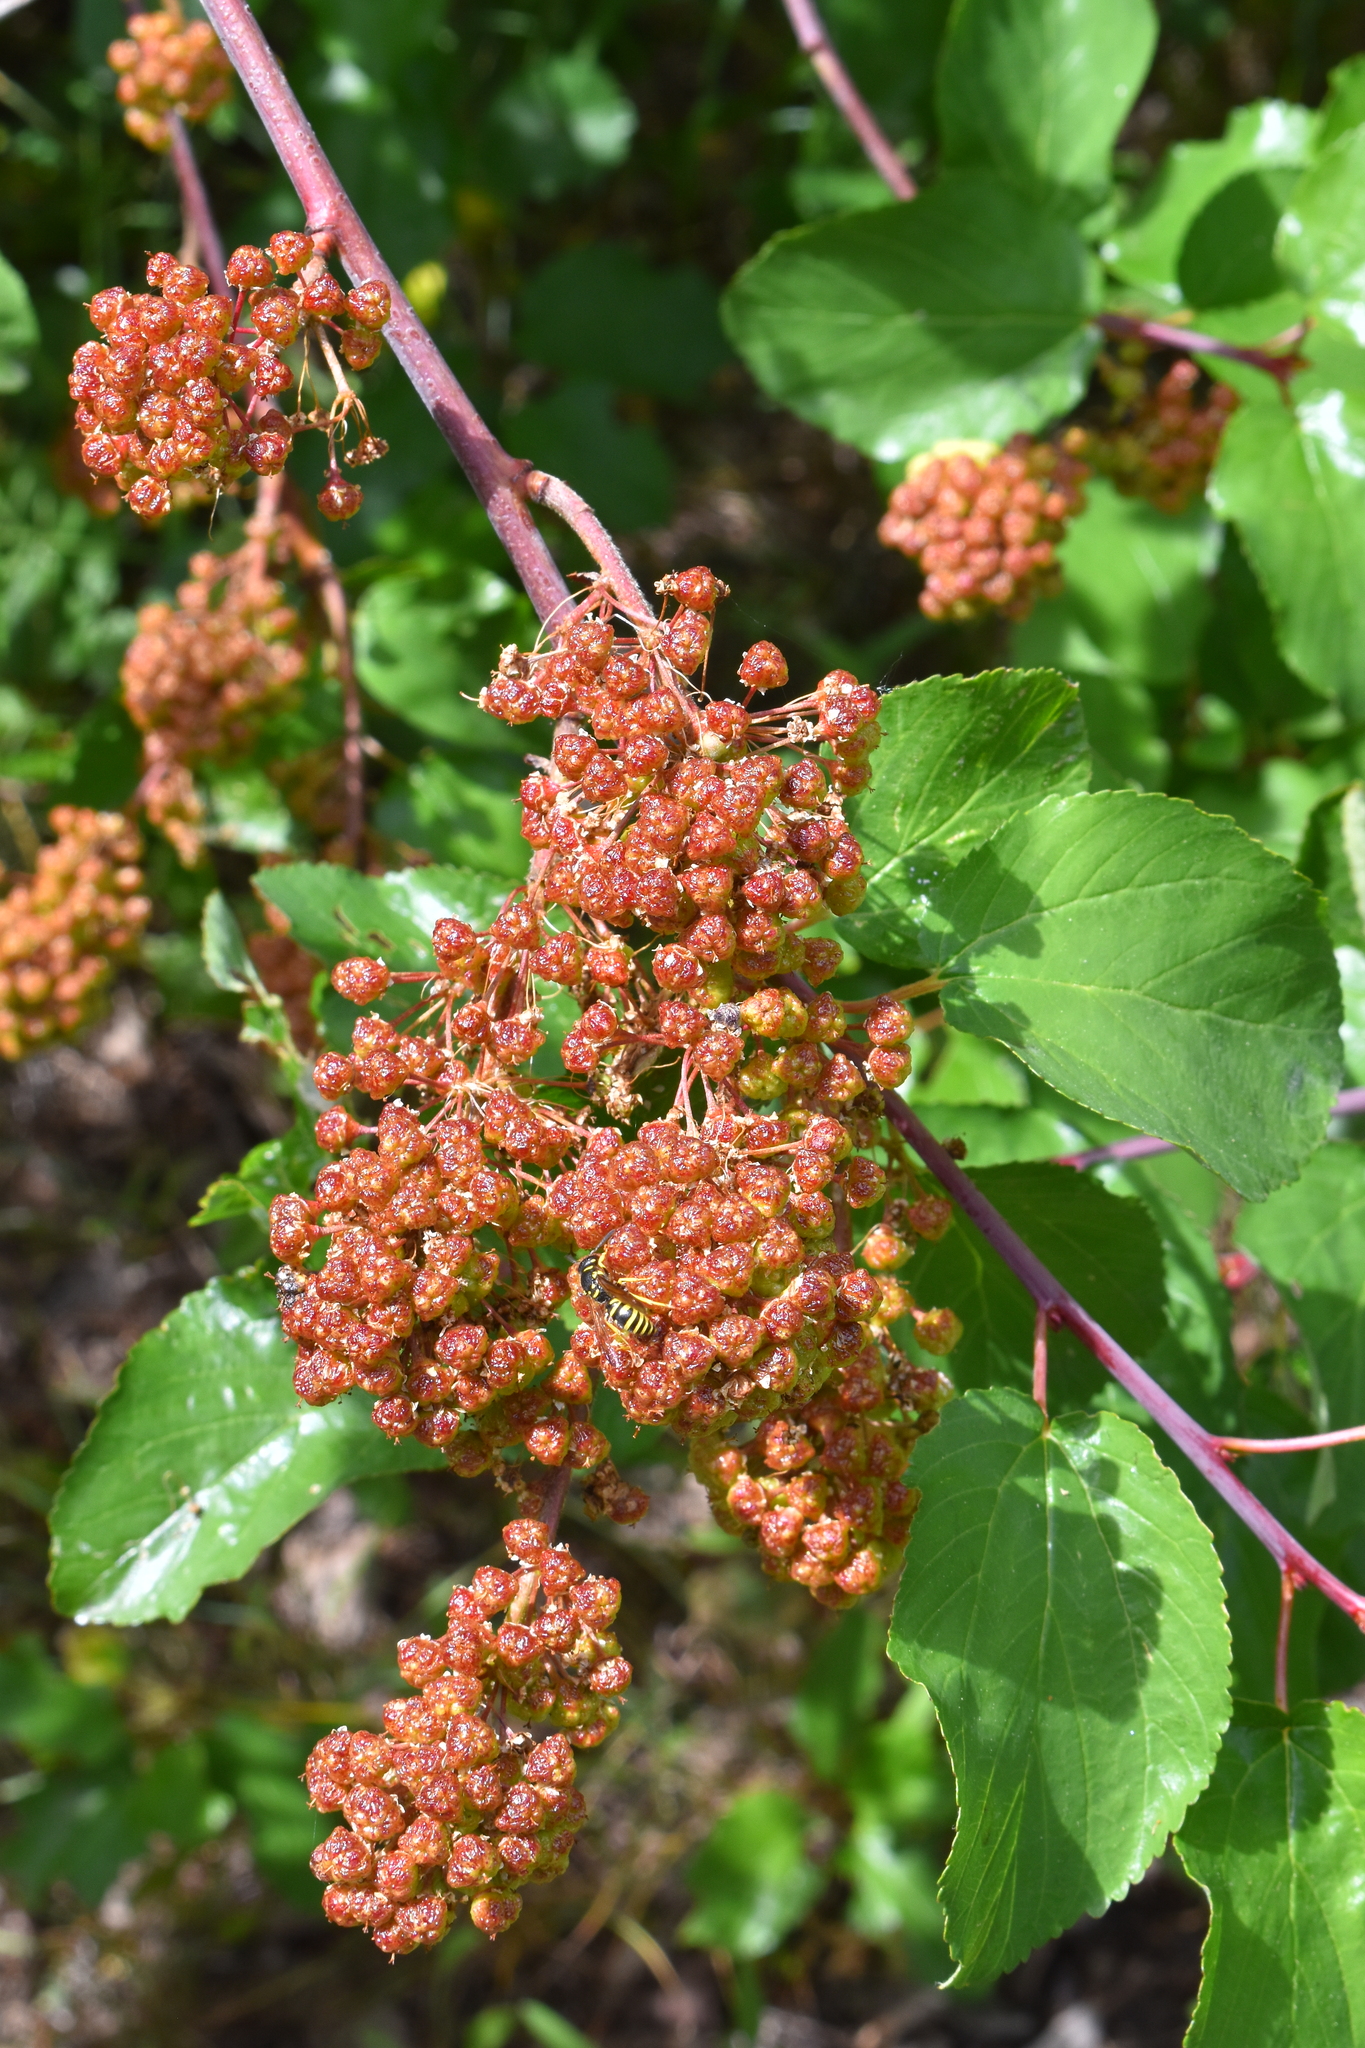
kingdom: Plantae
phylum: Tracheophyta
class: Magnoliopsida
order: Rosales
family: Rhamnaceae
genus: Ceanothus
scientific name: Ceanothus sanguineus
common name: Teatree
